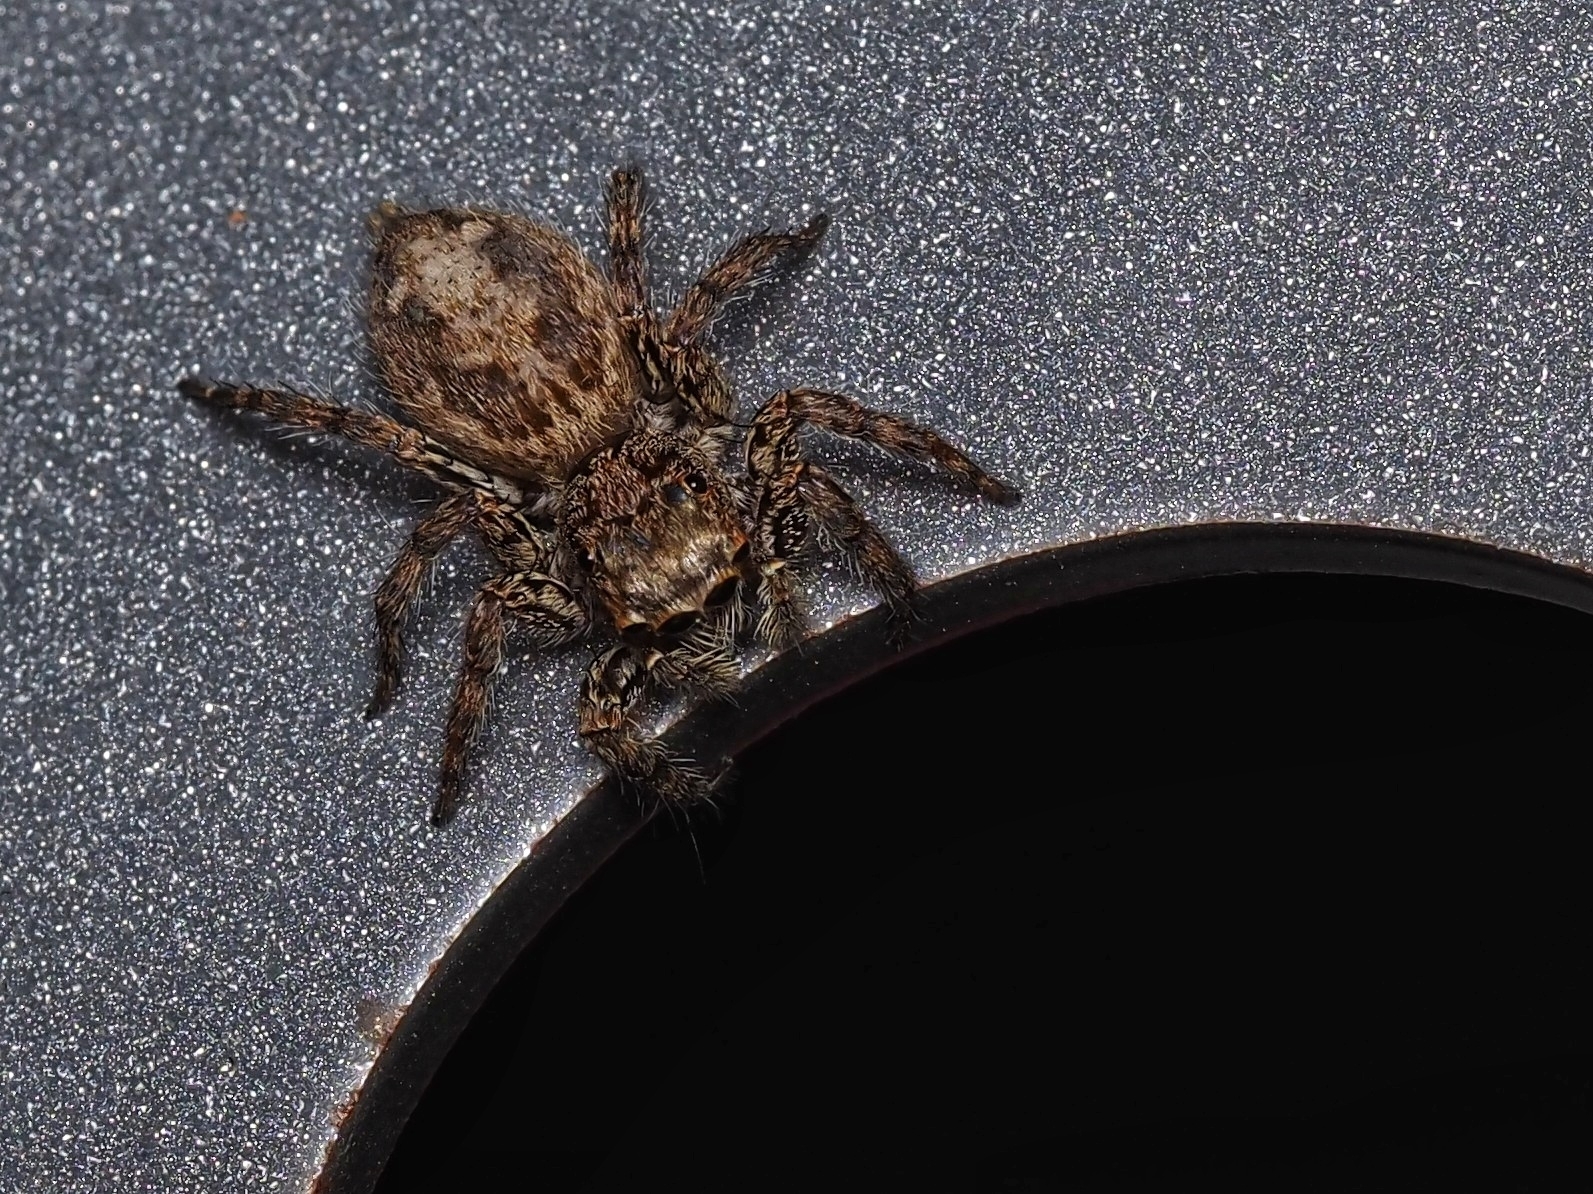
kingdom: Animalia
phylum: Arthropoda
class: Arachnida
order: Araneae
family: Salticidae
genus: Plexippus
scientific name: Plexippus petersi
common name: Jumping spider
